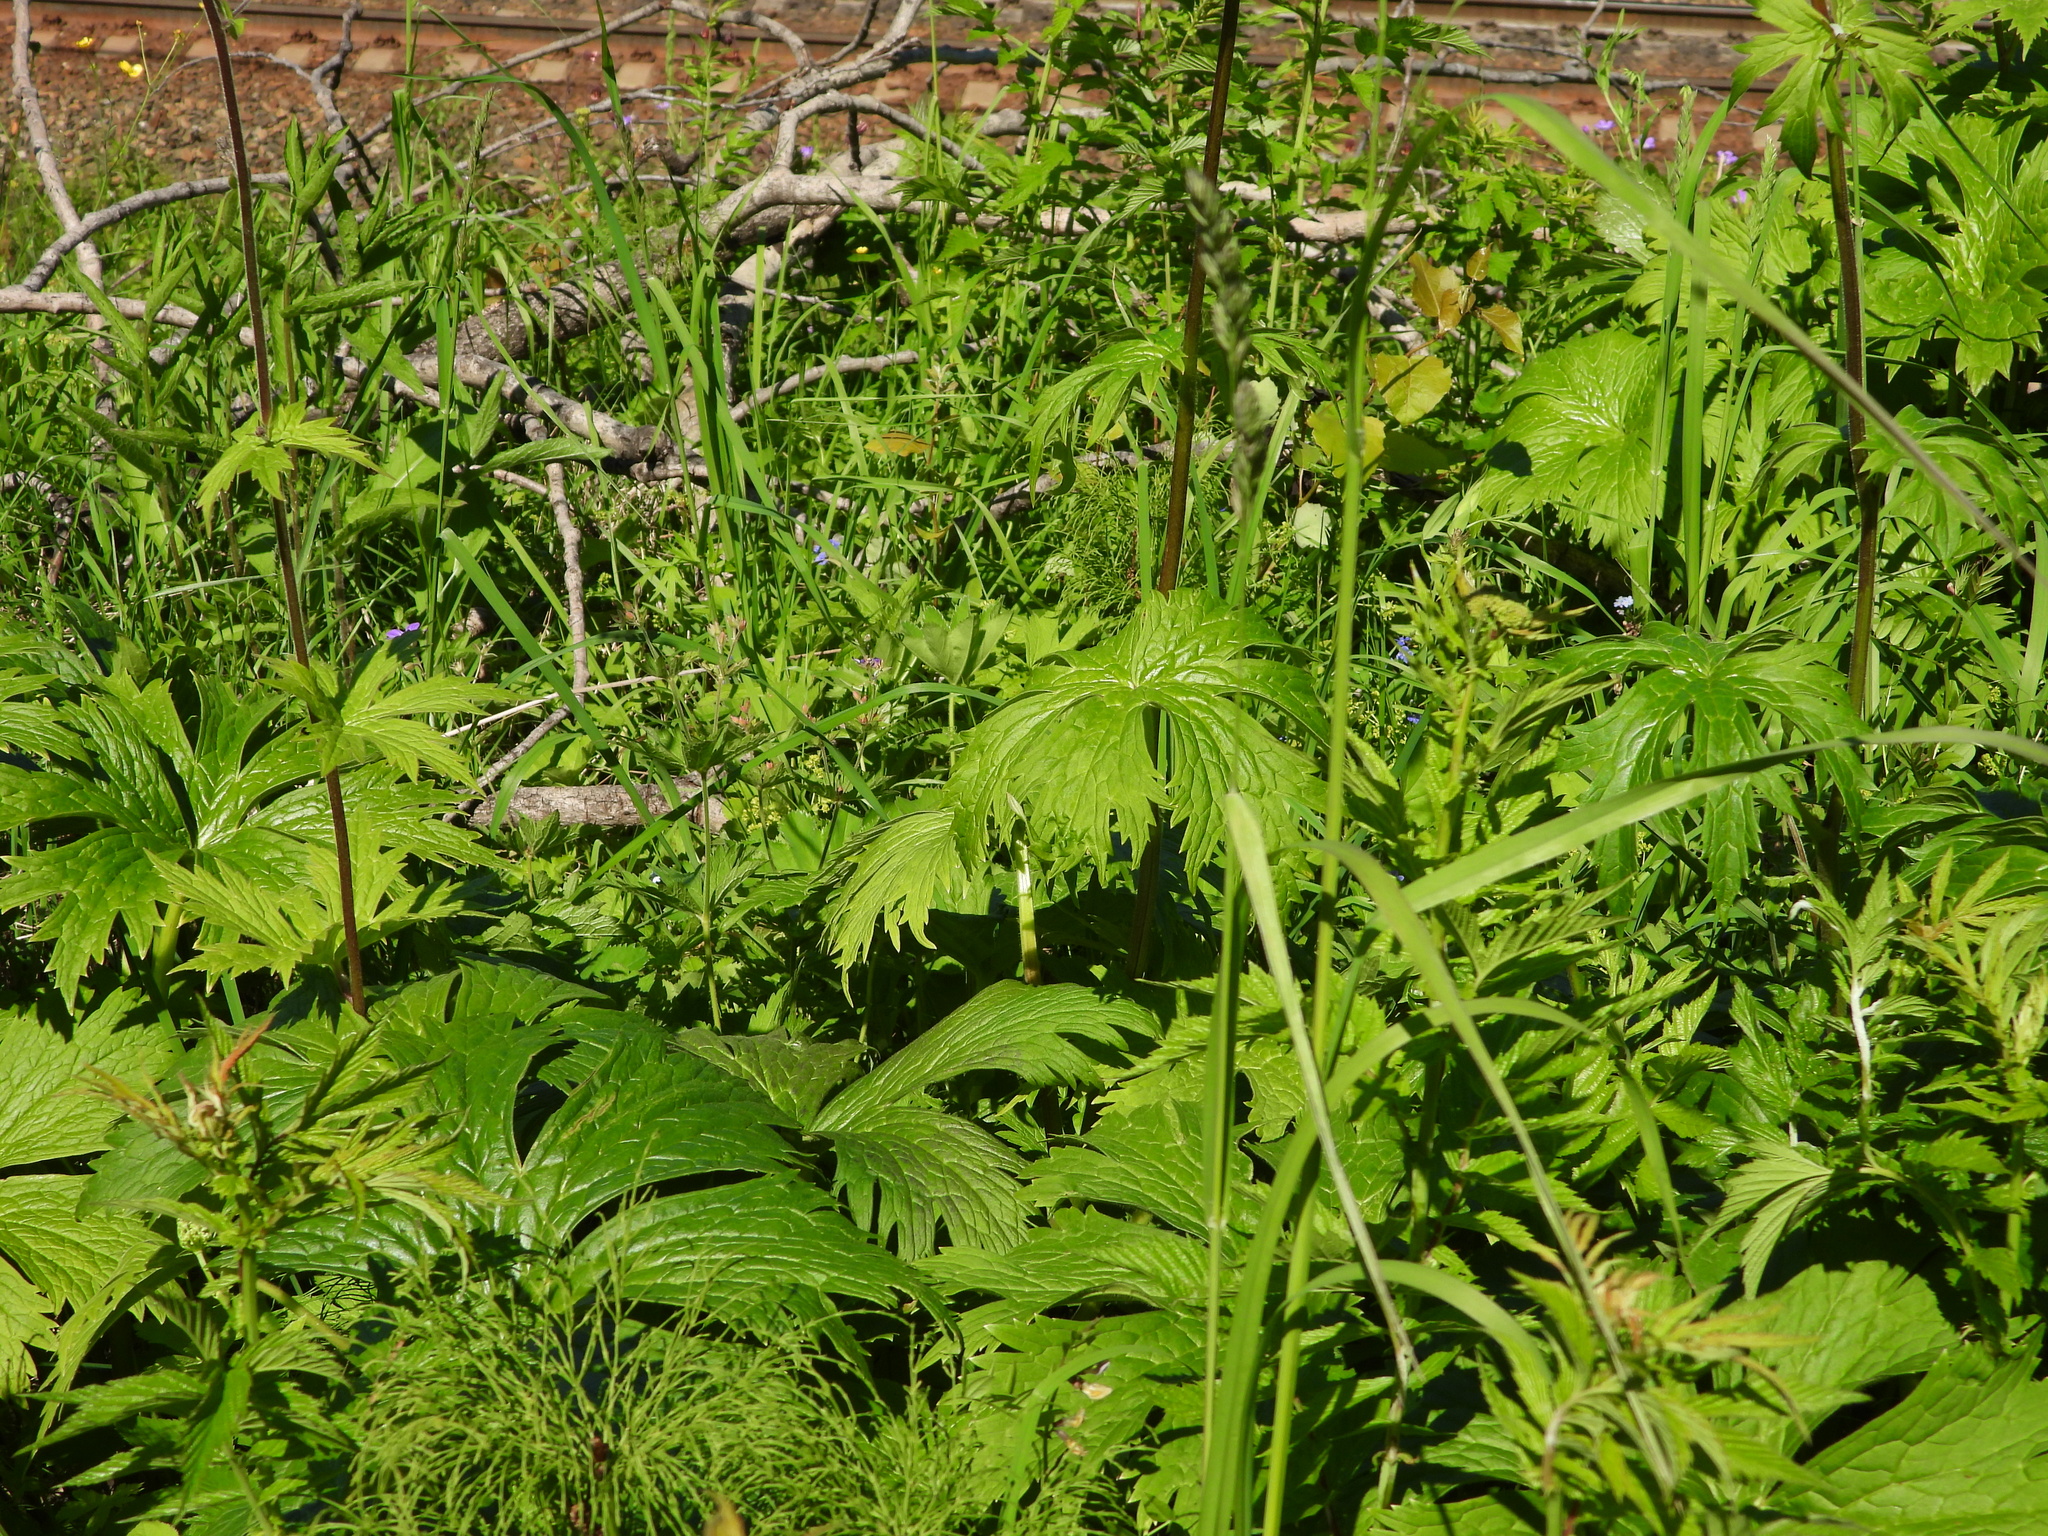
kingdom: Plantae
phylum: Tracheophyta
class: Magnoliopsida
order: Ranunculales
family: Ranunculaceae
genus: Aconitum
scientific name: Aconitum septentrionale
